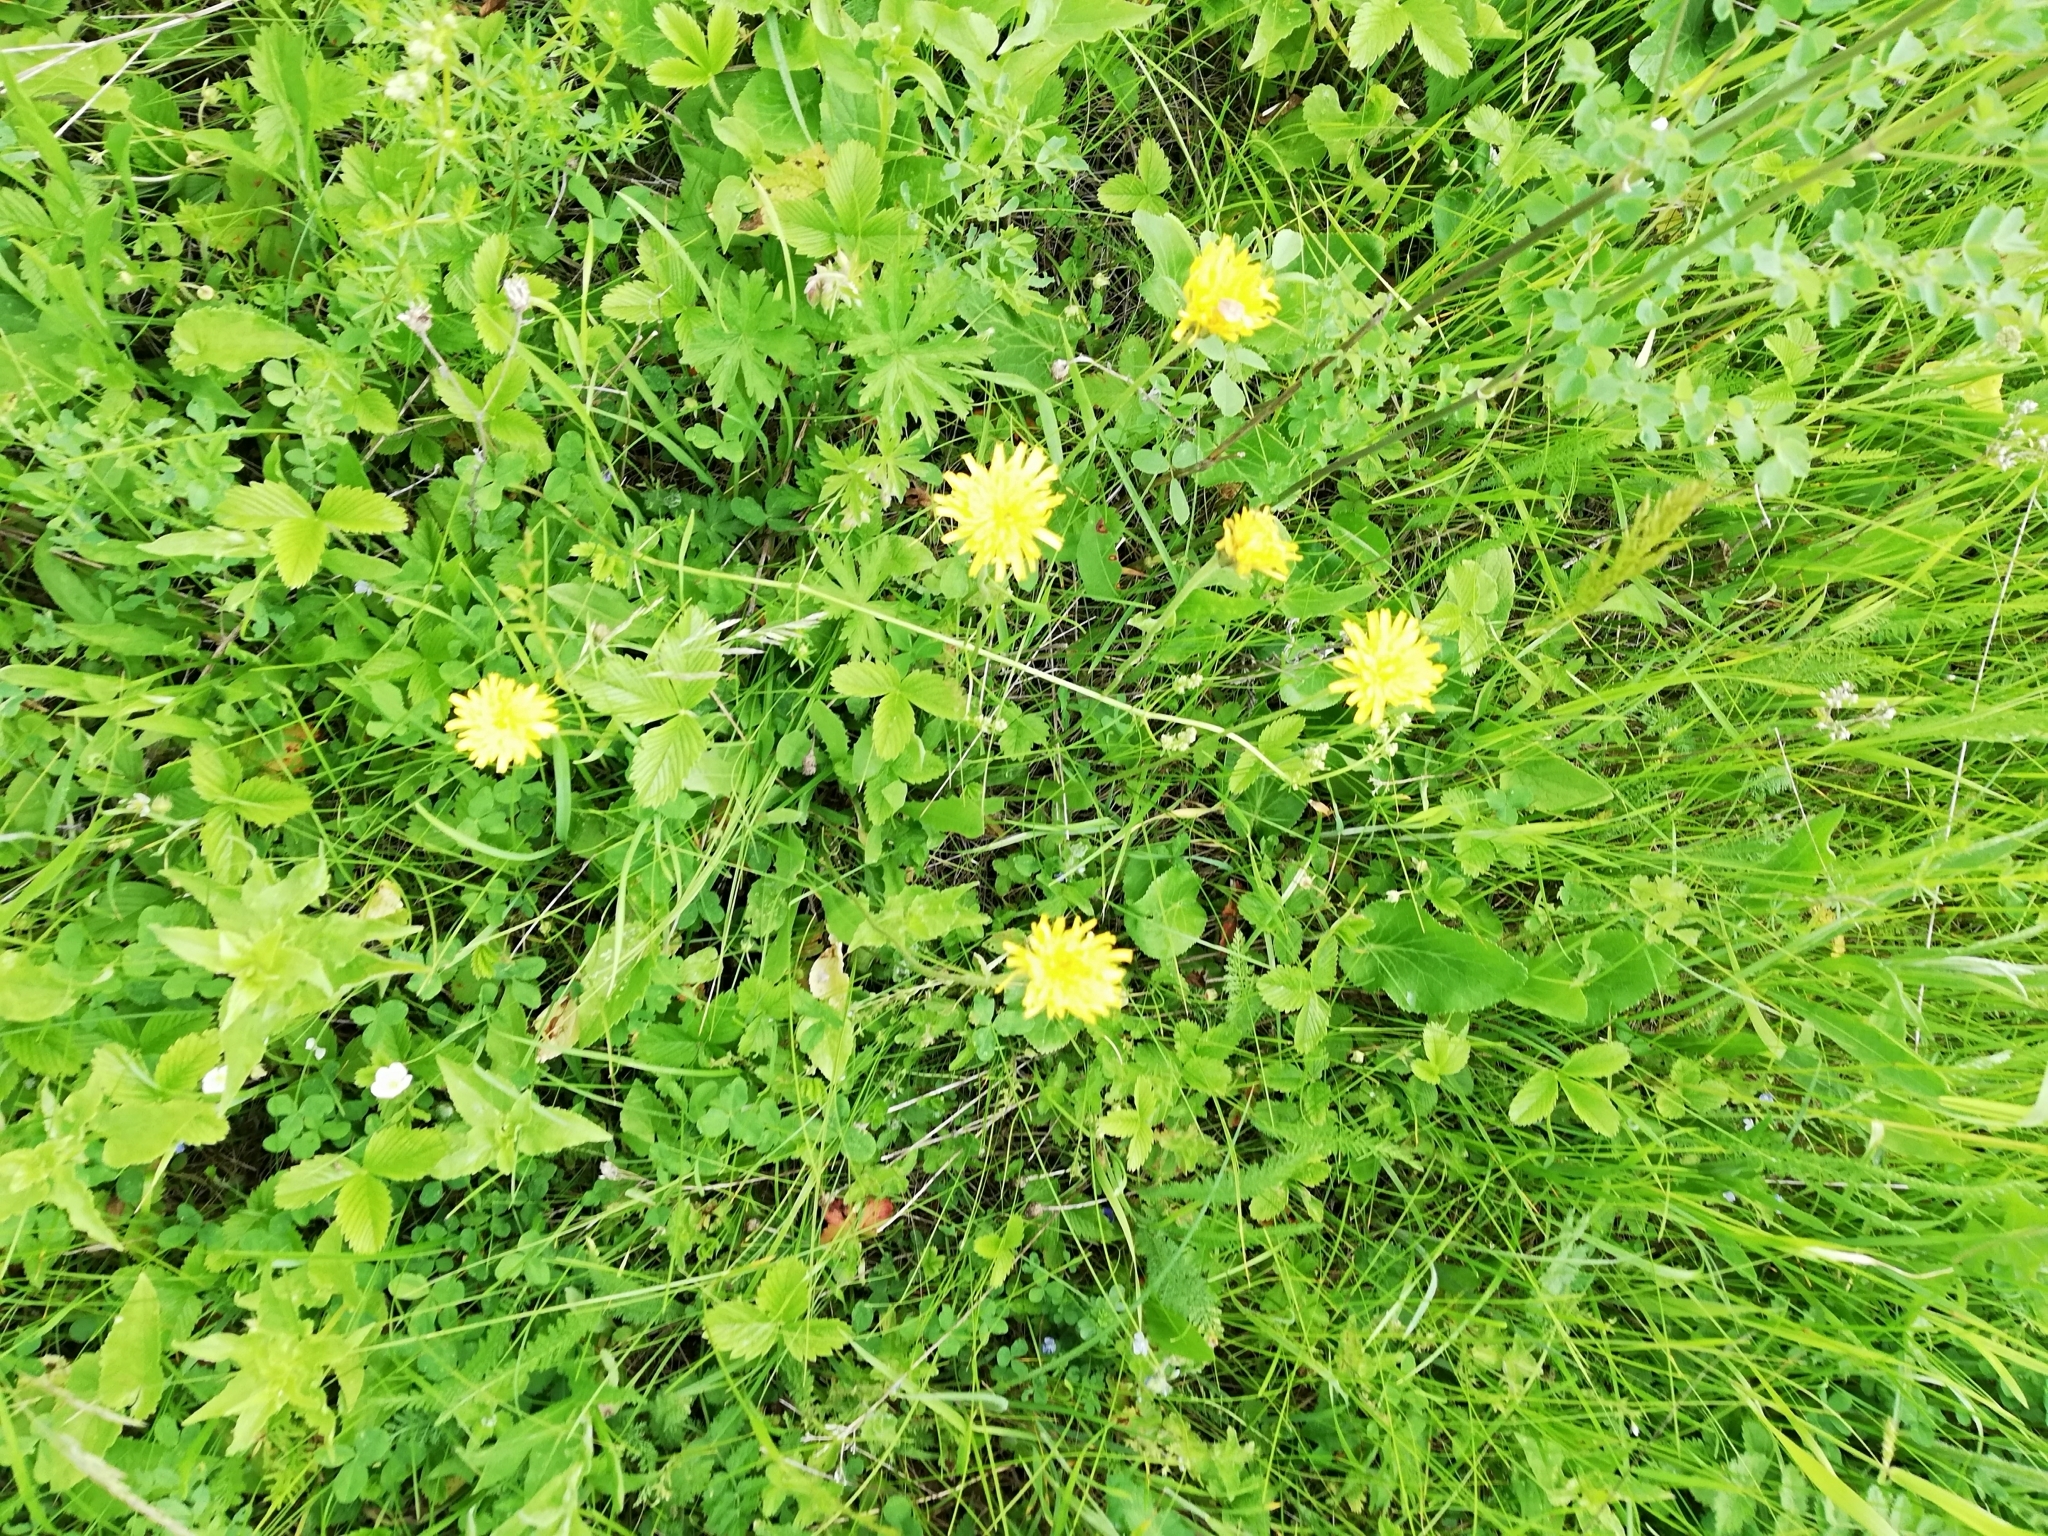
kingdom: Plantae
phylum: Tracheophyta
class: Magnoliopsida
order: Asterales
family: Asteraceae
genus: Leontodon
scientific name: Leontodon hispidus
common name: Rough hawkbit
